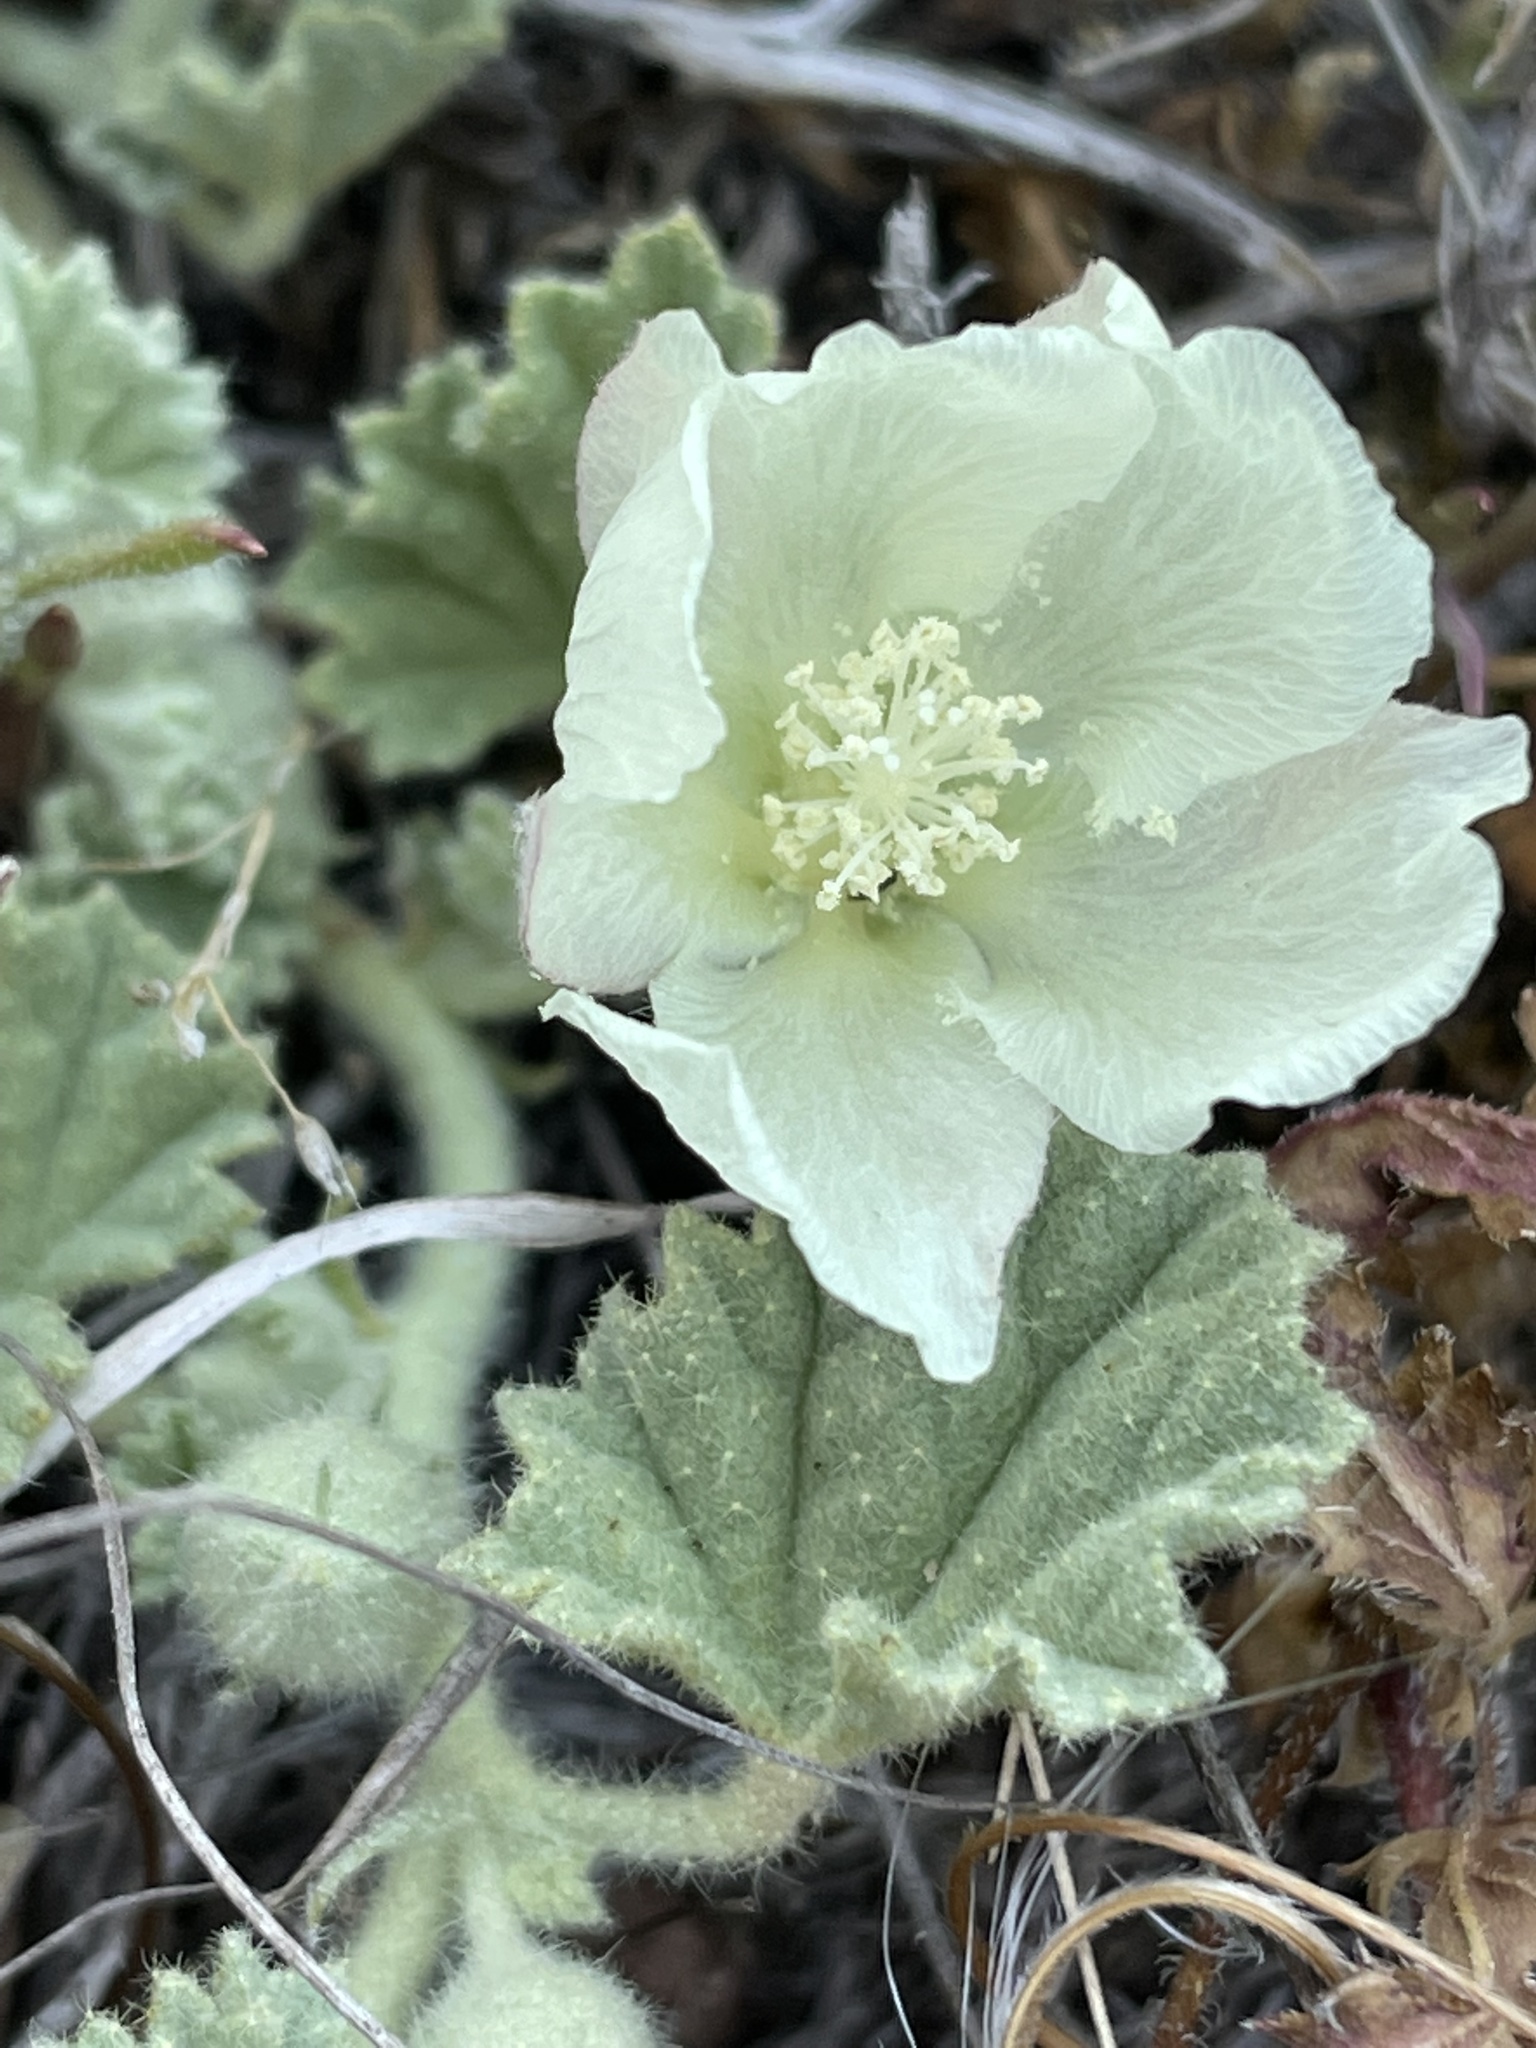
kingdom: Plantae
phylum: Tracheophyta
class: Magnoliopsida
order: Malvales
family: Malvaceae
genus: Malvella
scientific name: Malvella leprosa
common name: Alkali-mallow
